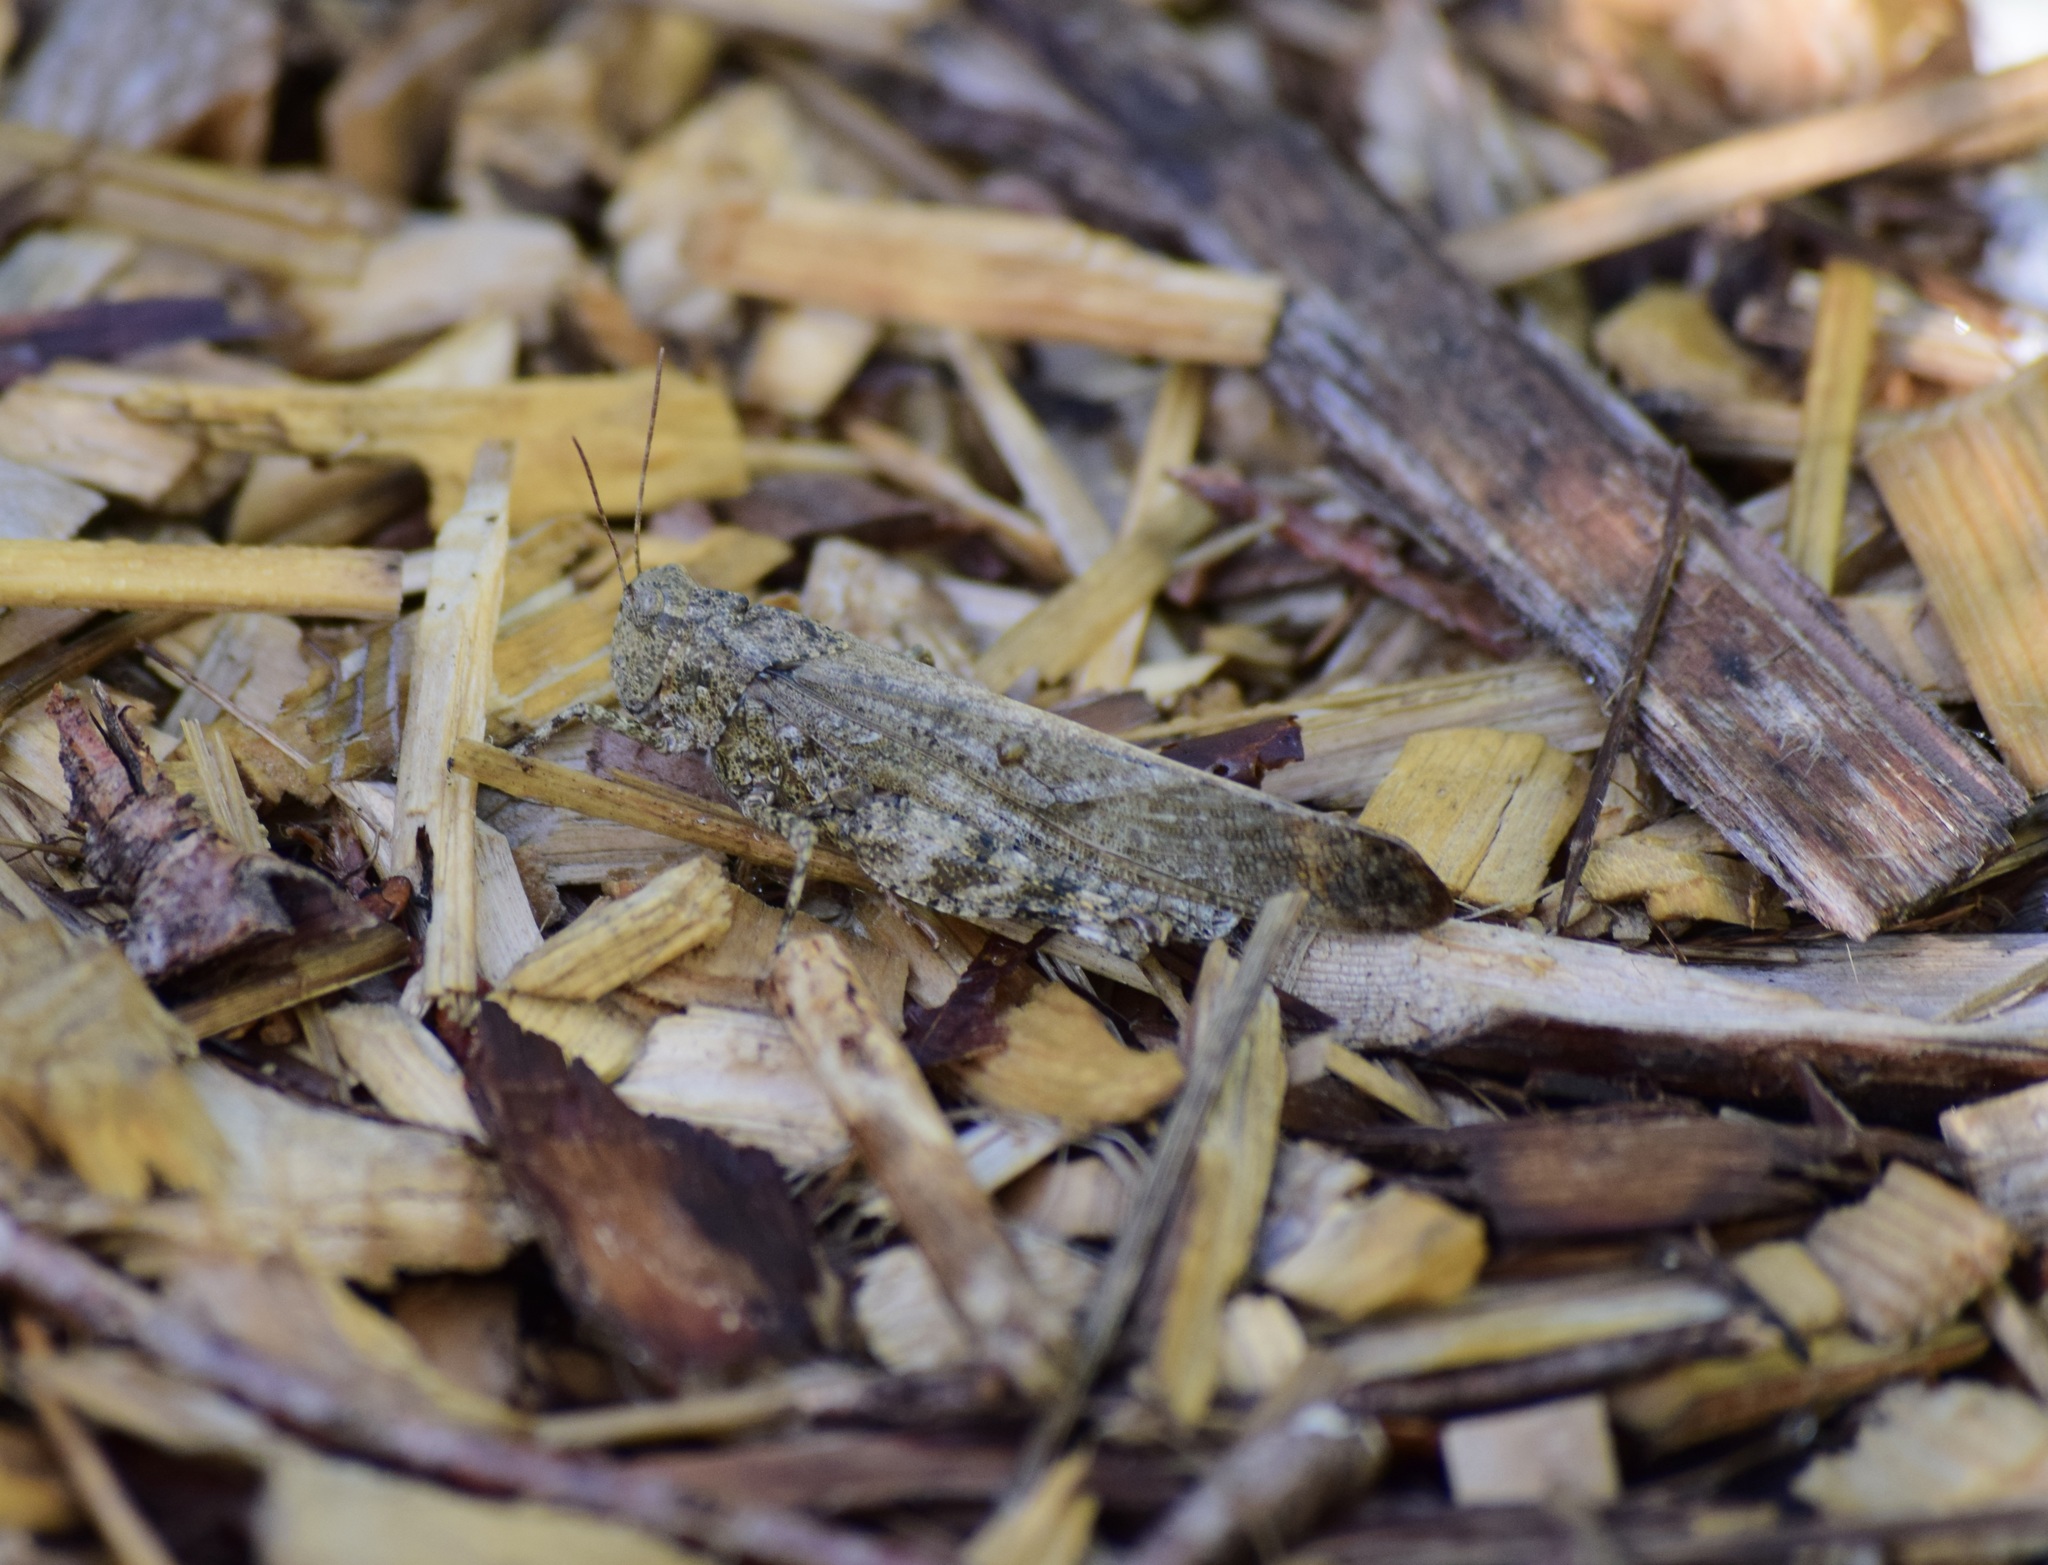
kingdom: Animalia
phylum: Arthropoda
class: Insecta
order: Orthoptera
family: Acrididae
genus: Dissosteira
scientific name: Dissosteira carolina
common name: Carolina grasshopper
